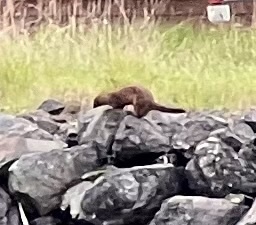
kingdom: Animalia
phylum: Chordata
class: Mammalia
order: Carnivora
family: Mustelidae
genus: Mustela
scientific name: Mustela
